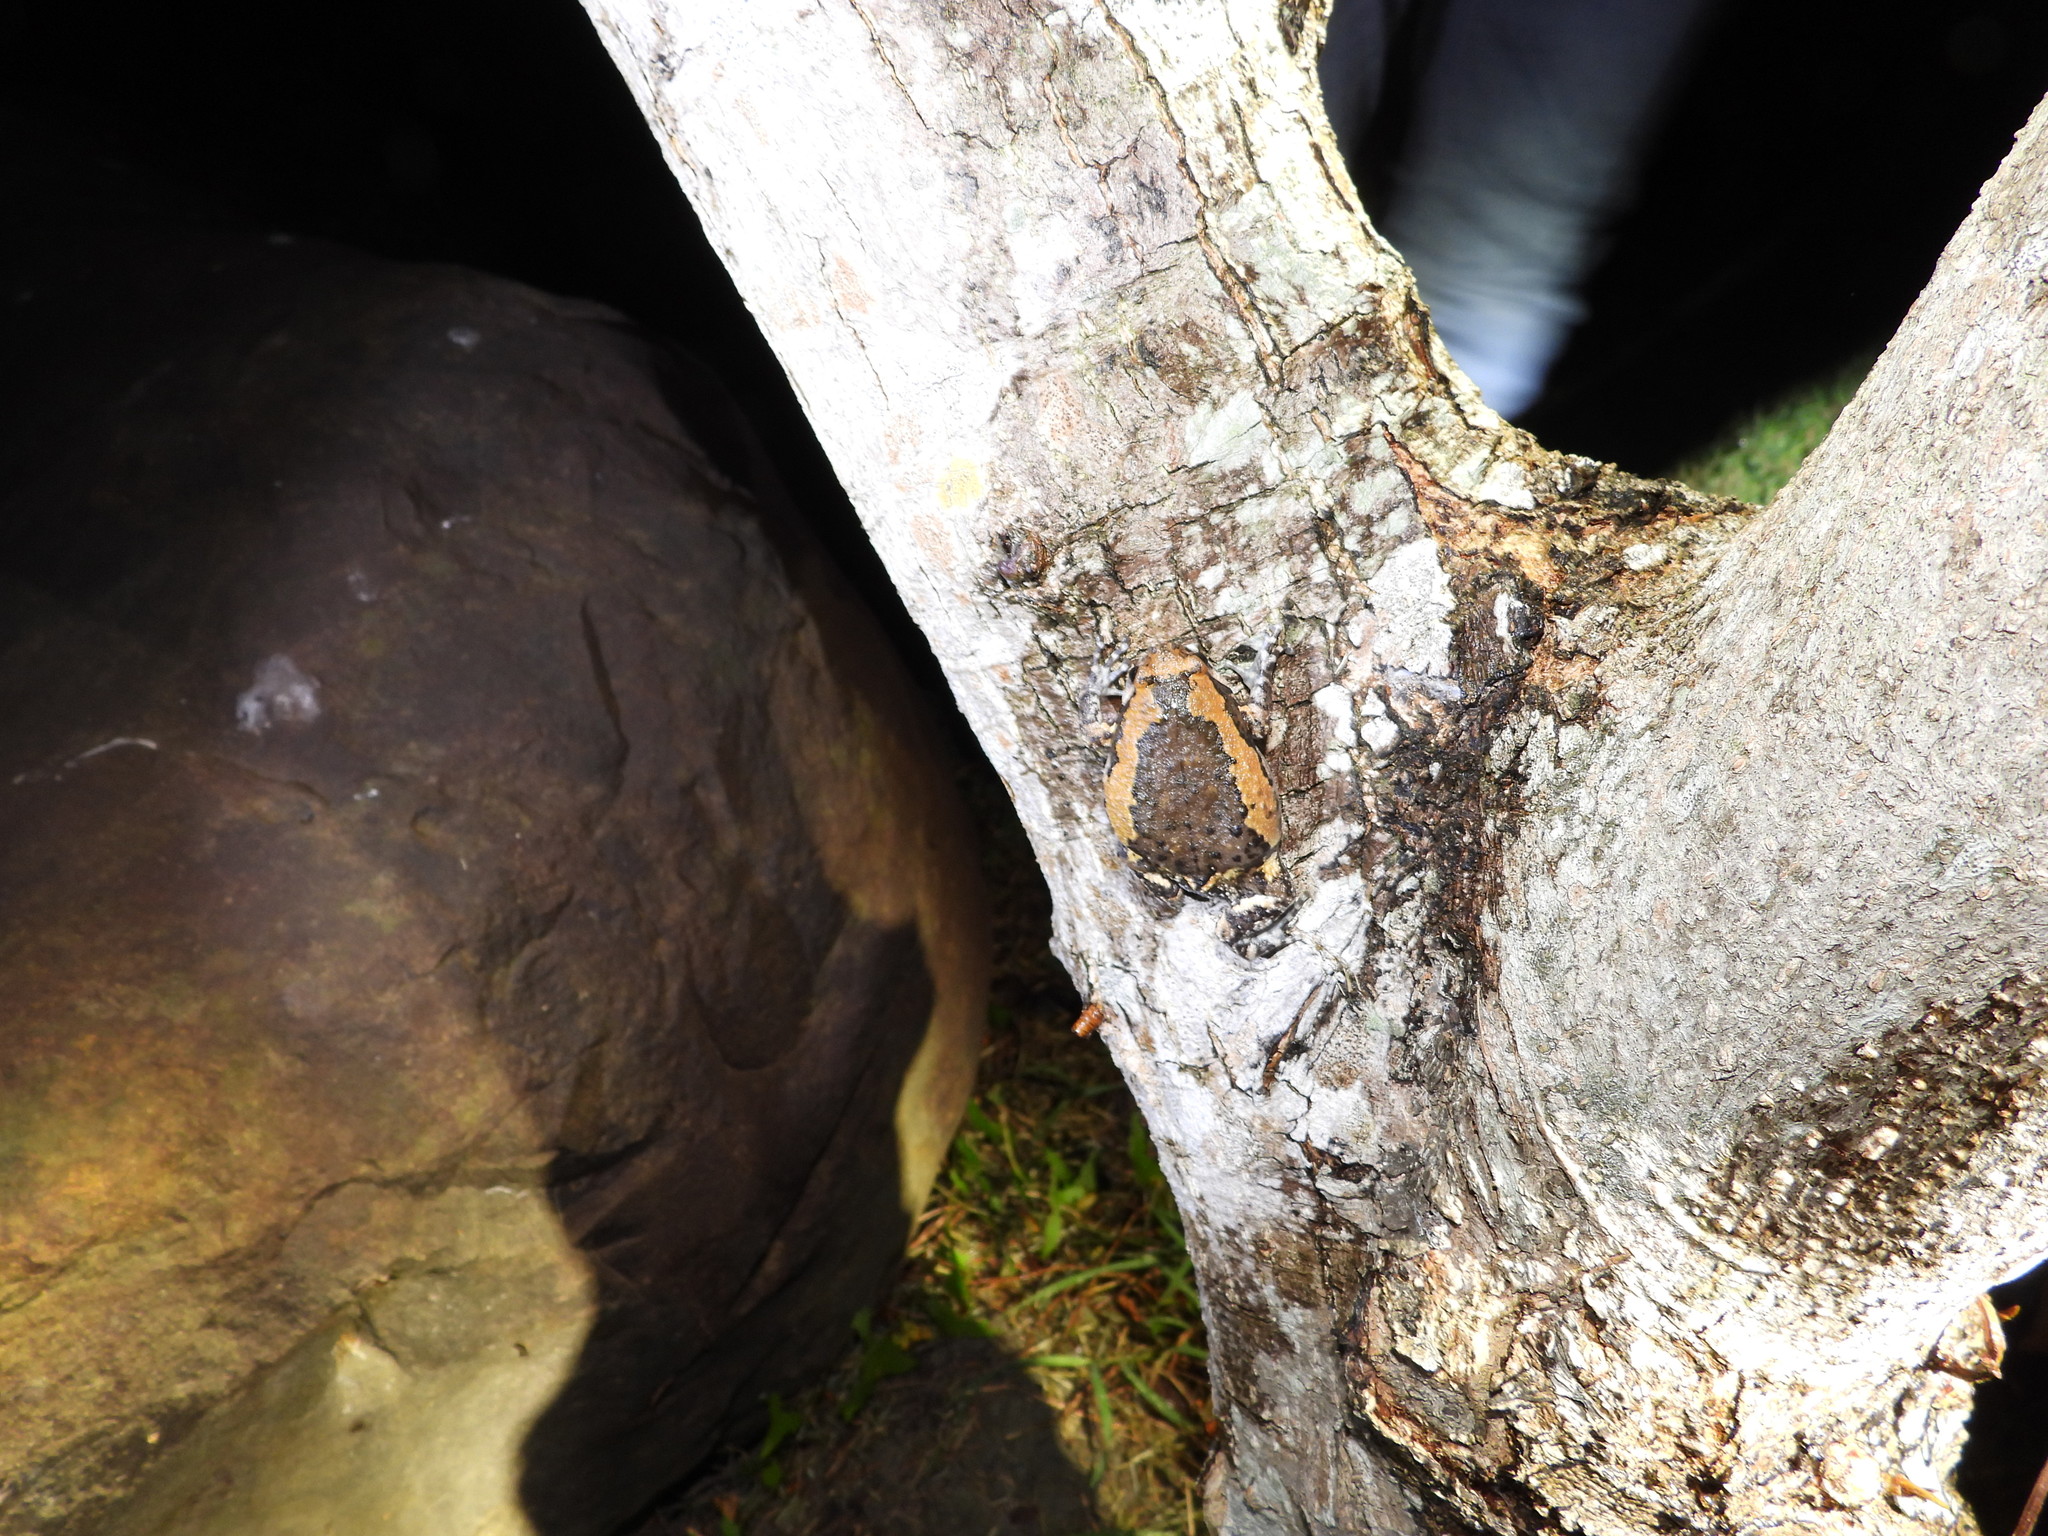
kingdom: Animalia
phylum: Chordata
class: Amphibia
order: Anura
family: Microhylidae
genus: Kaloula
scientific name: Kaloula pulchra
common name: Common,banded bullfrog
